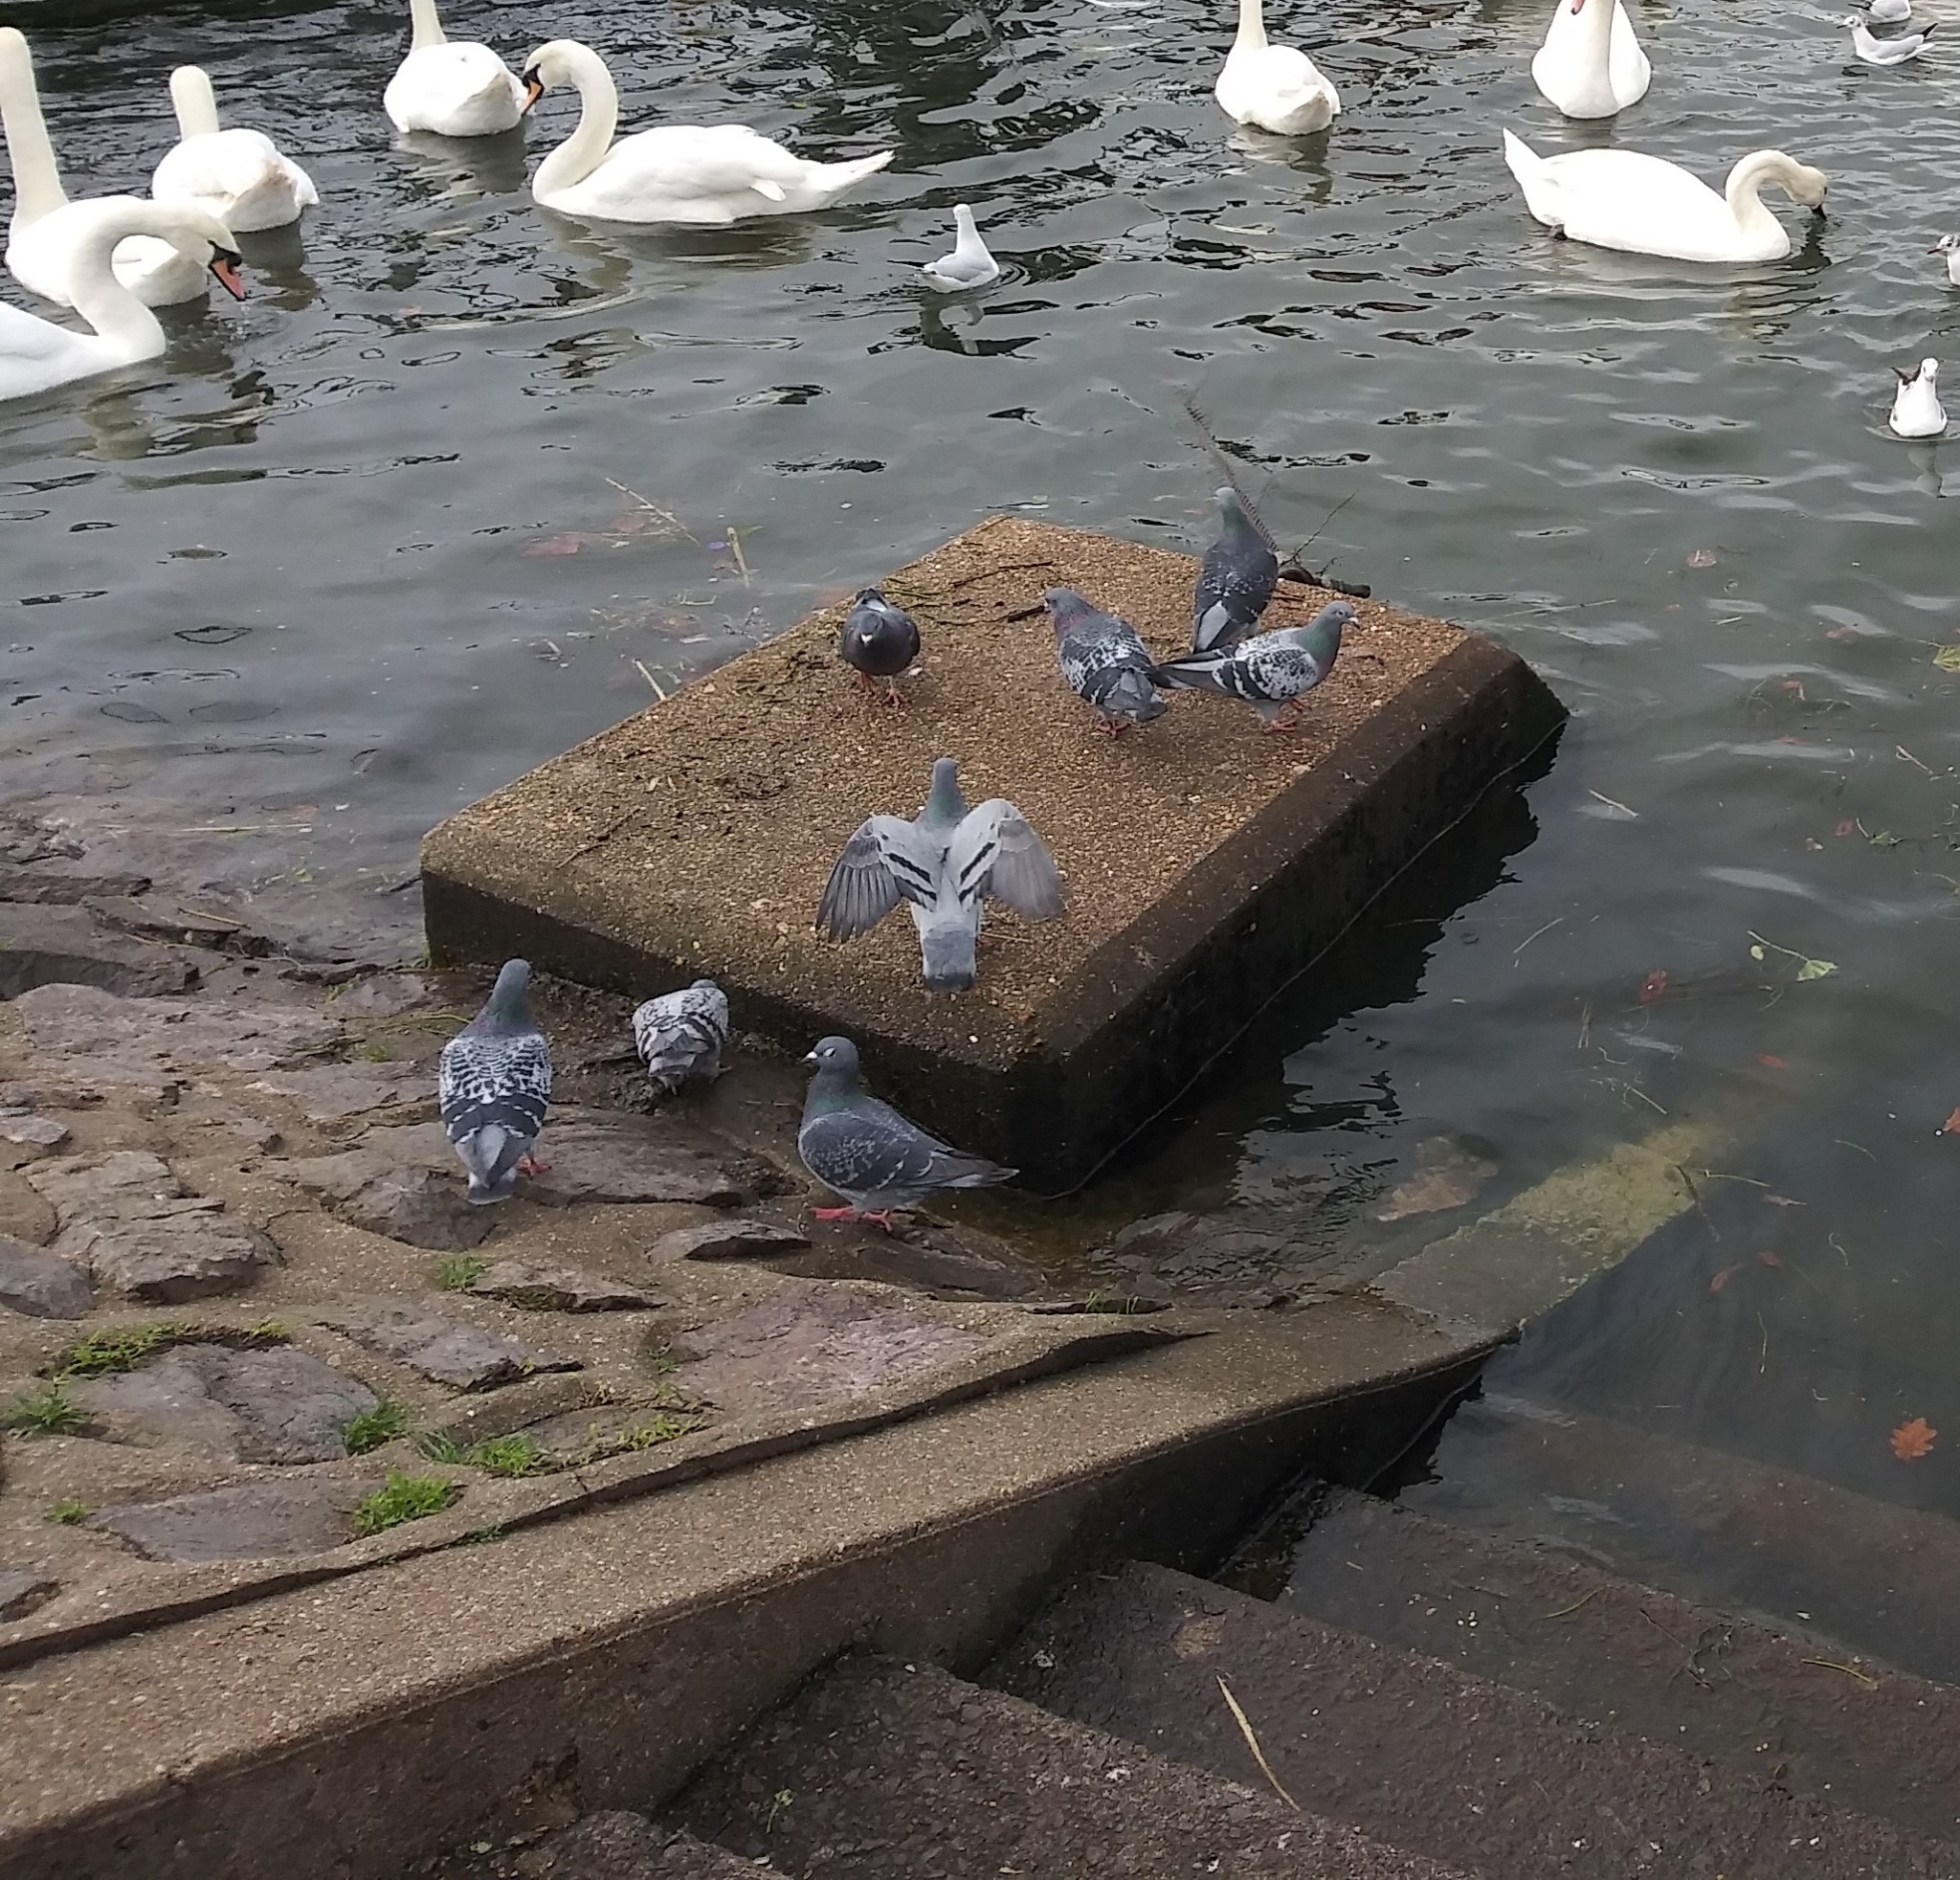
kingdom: Animalia
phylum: Chordata
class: Aves
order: Columbiformes
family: Columbidae
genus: Columba
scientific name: Columba livia
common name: Rock pigeon
